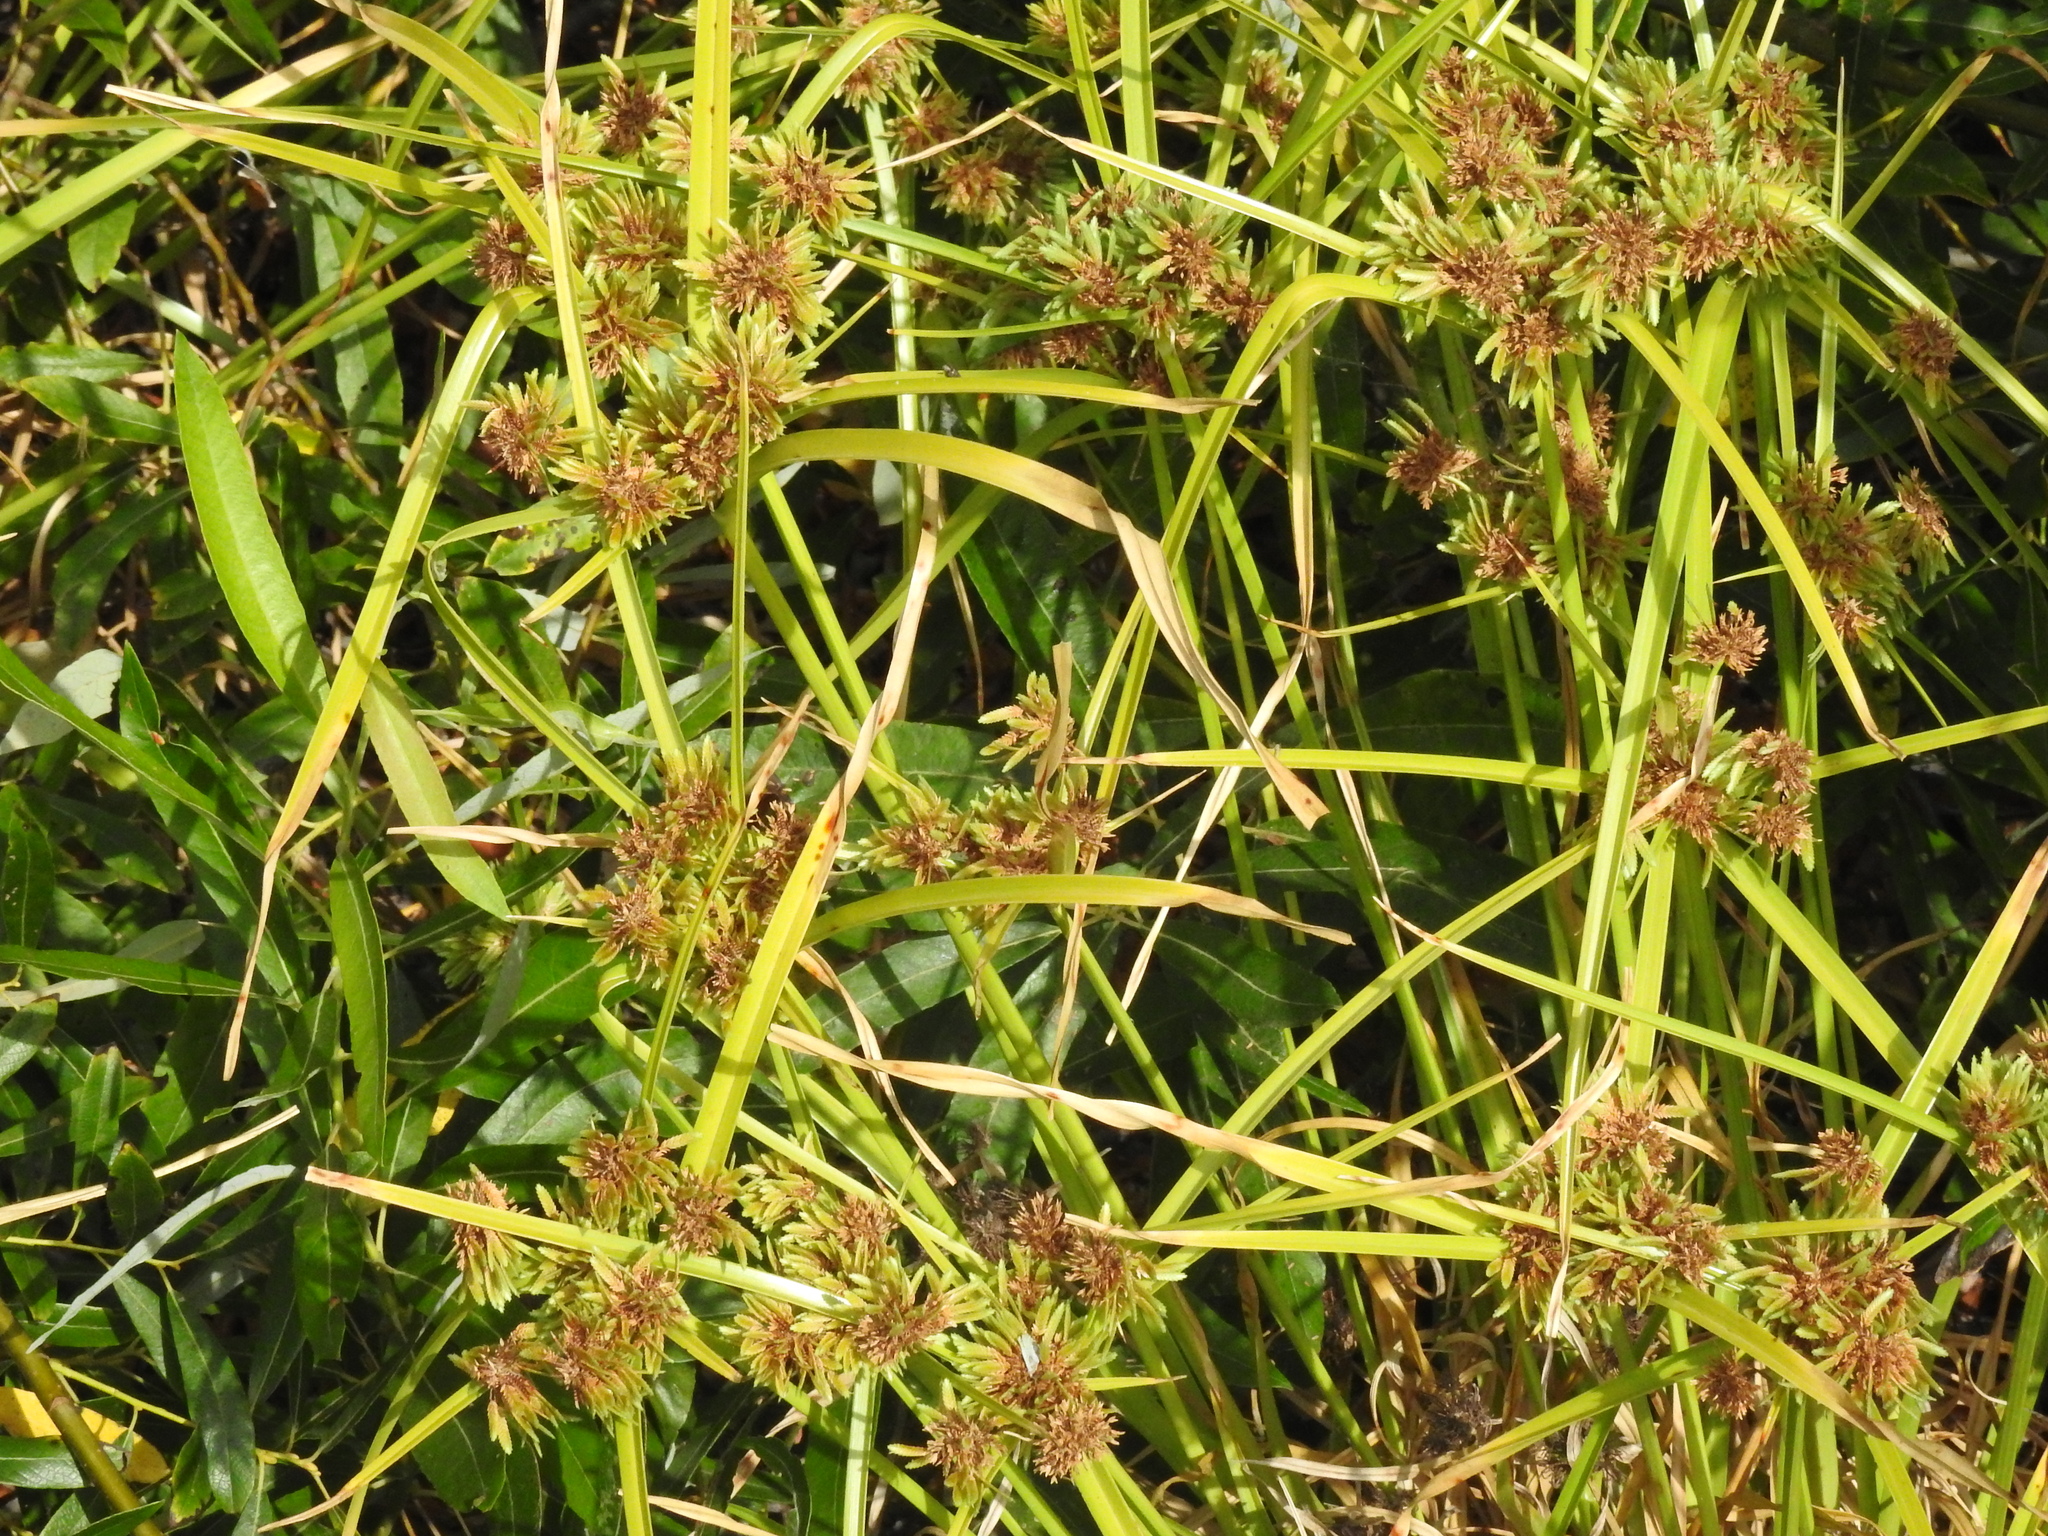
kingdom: Plantae
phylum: Tracheophyta
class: Liliopsida
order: Poales
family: Cyperaceae
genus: Cyperus
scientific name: Cyperus eragrostis
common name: Tall flatsedge
